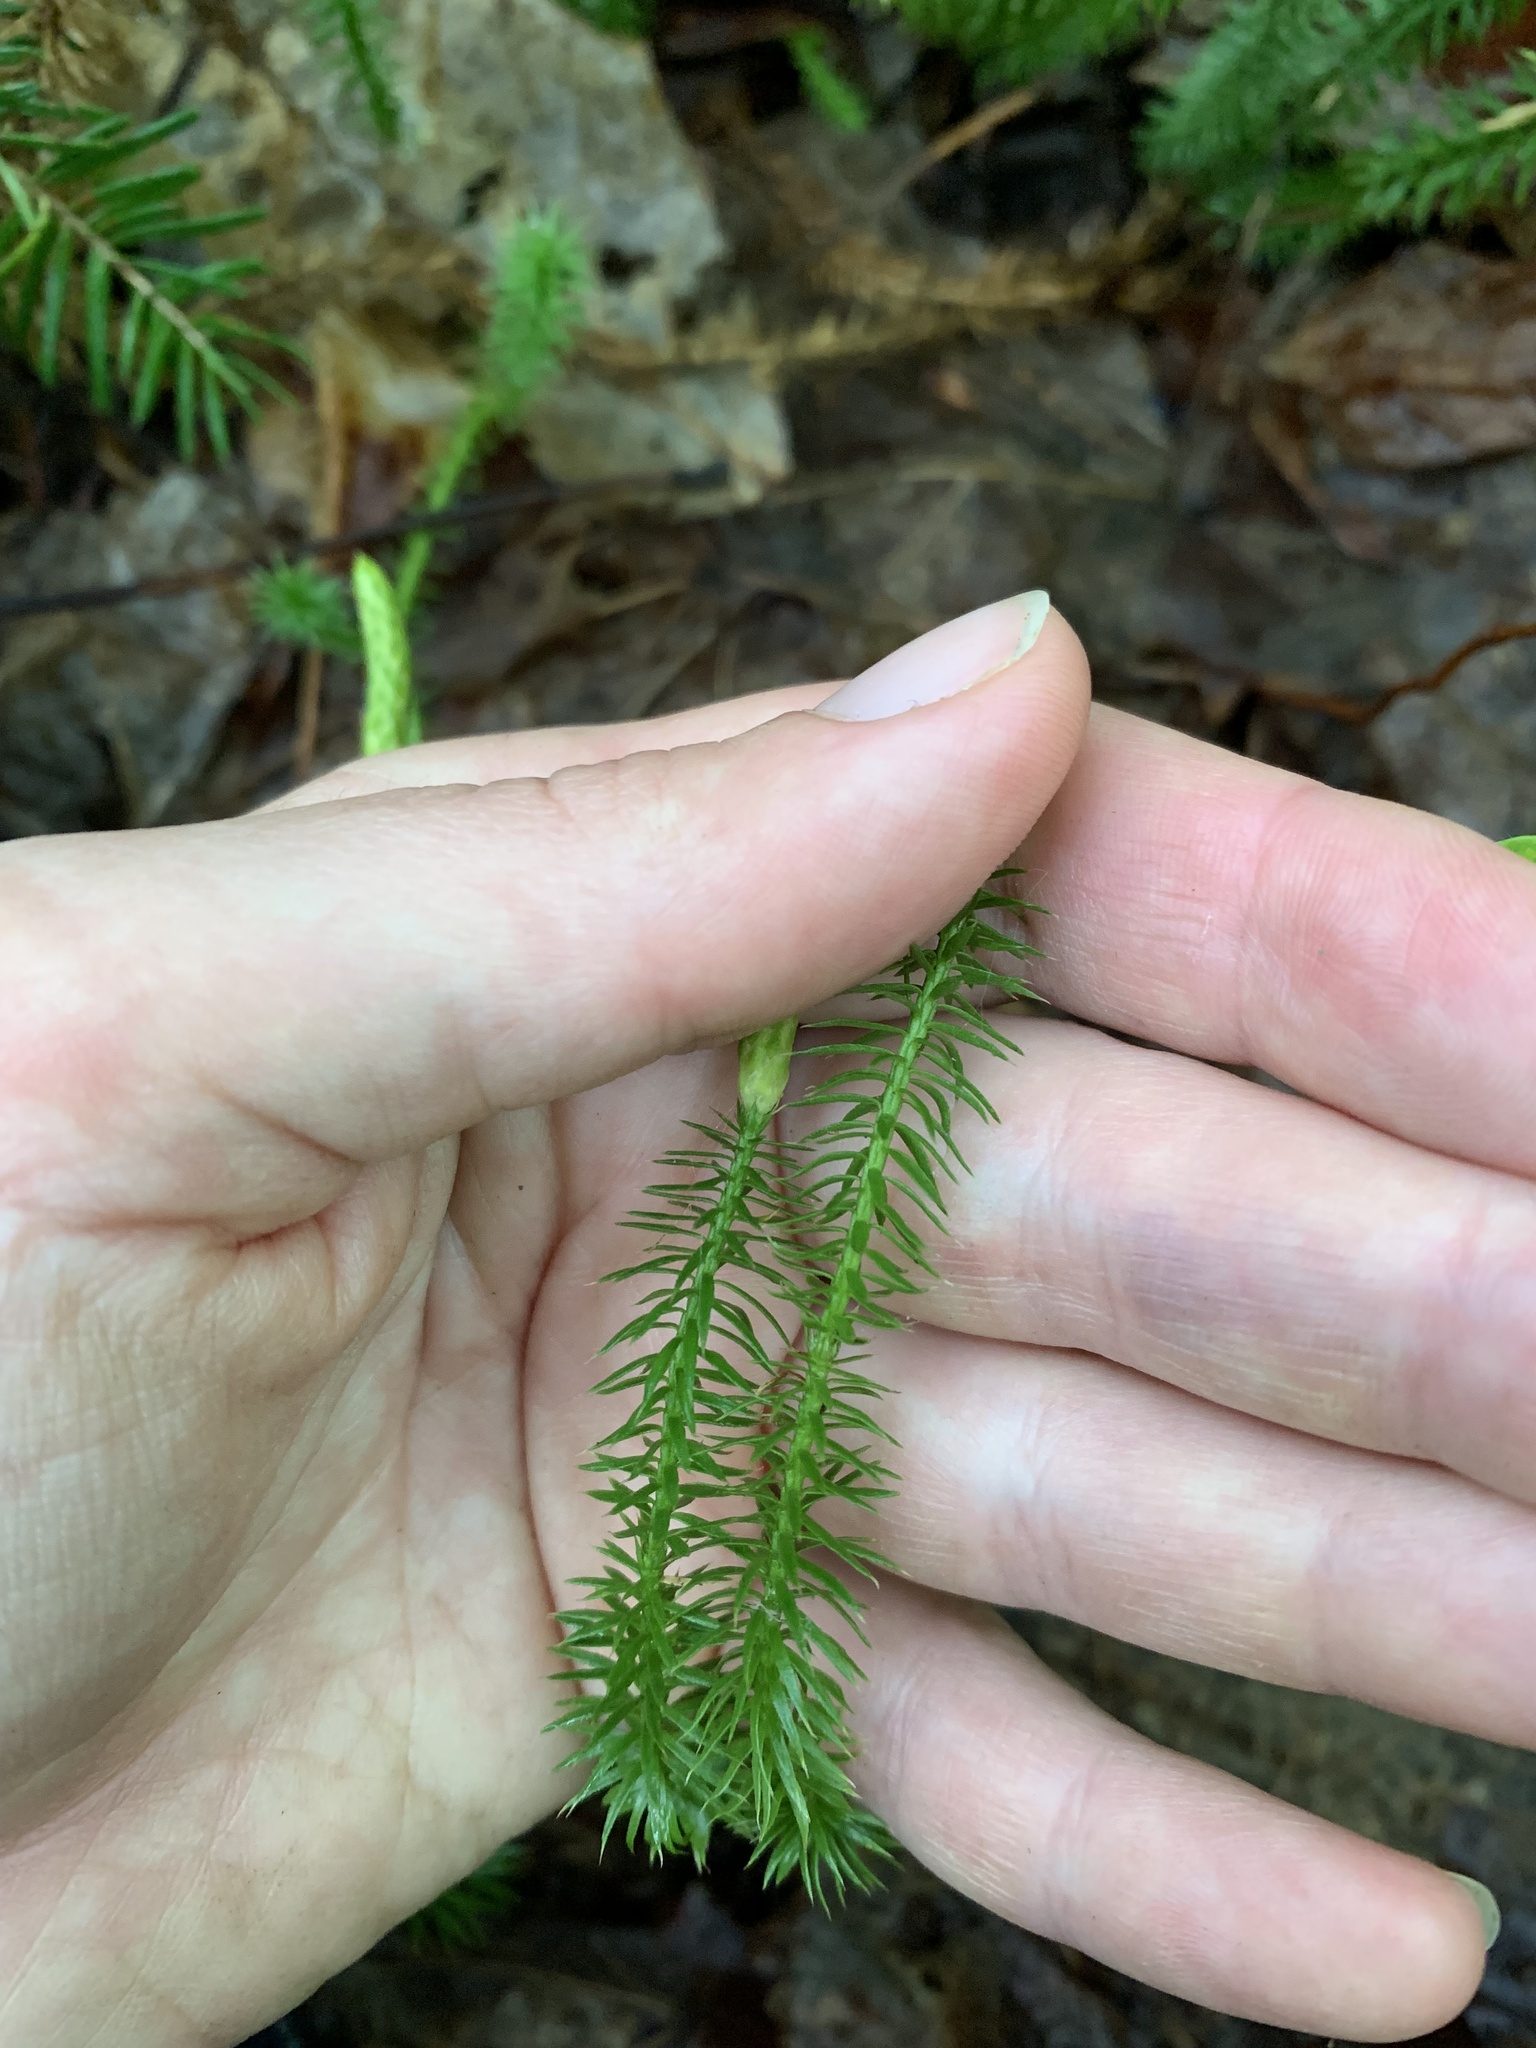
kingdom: Plantae
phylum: Tracheophyta
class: Lycopodiopsida
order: Lycopodiales
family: Lycopodiaceae
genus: Spinulum
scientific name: Spinulum annotinum
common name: Interrupted club-moss
